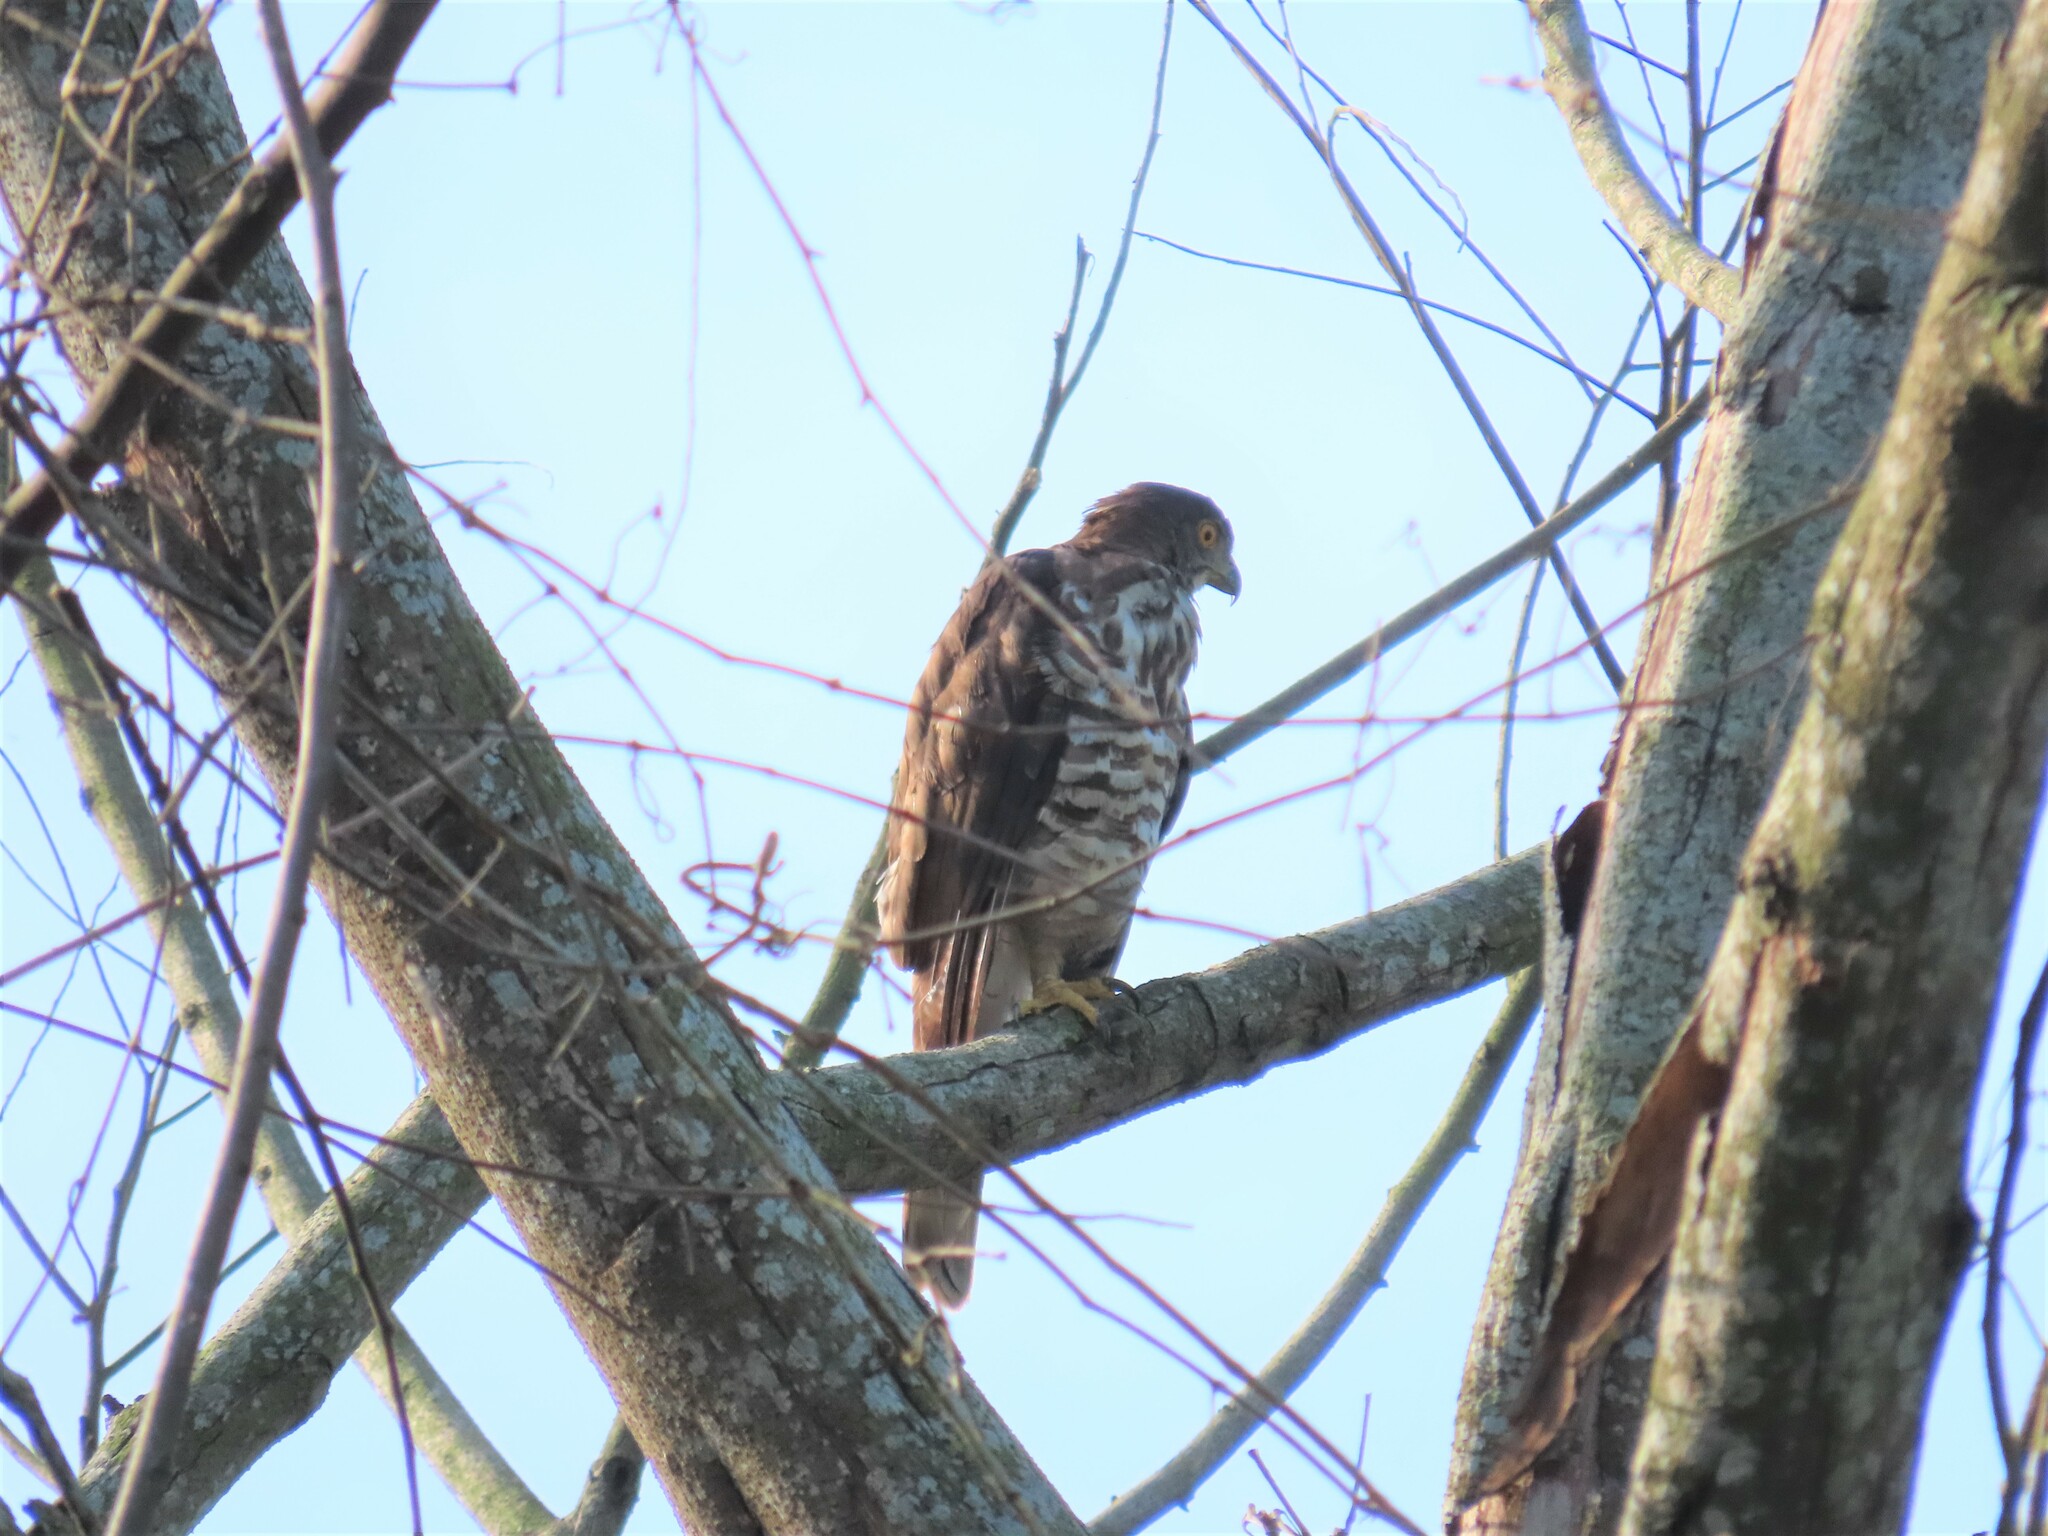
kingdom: Animalia
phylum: Chordata
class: Aves
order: Accipitriformes
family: Accipitridae
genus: Accipiter
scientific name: Accipiter trivirgatus
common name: Crested goshawk
